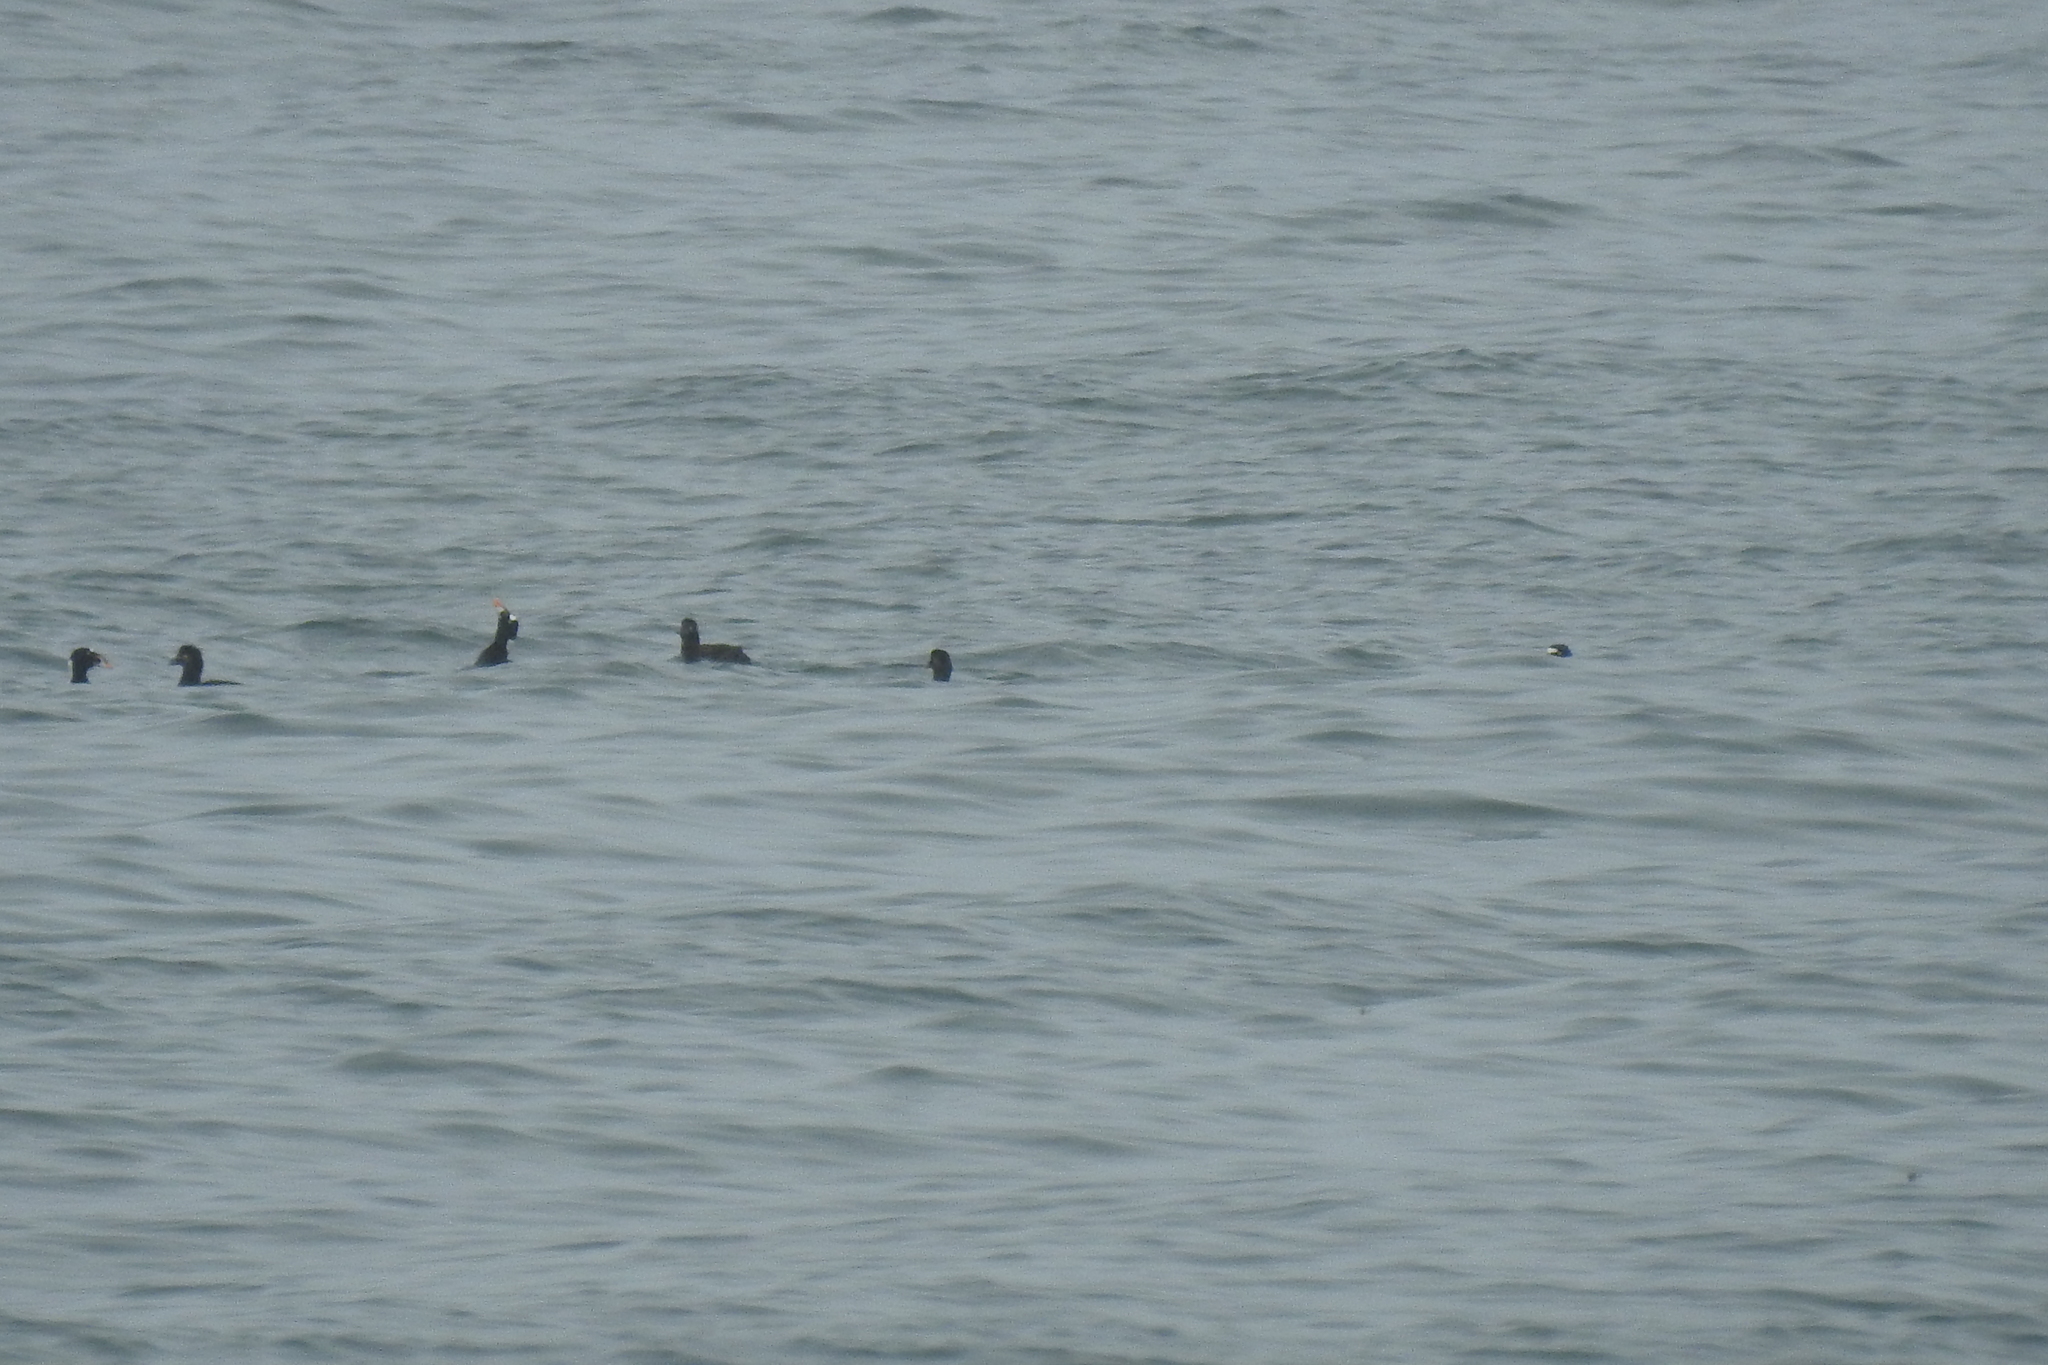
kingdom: Animalia
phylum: Chordata
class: Aves
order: Anseriformes
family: Anatidae
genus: Melanitta
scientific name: Melanitta perspicillata
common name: Surf scoter
